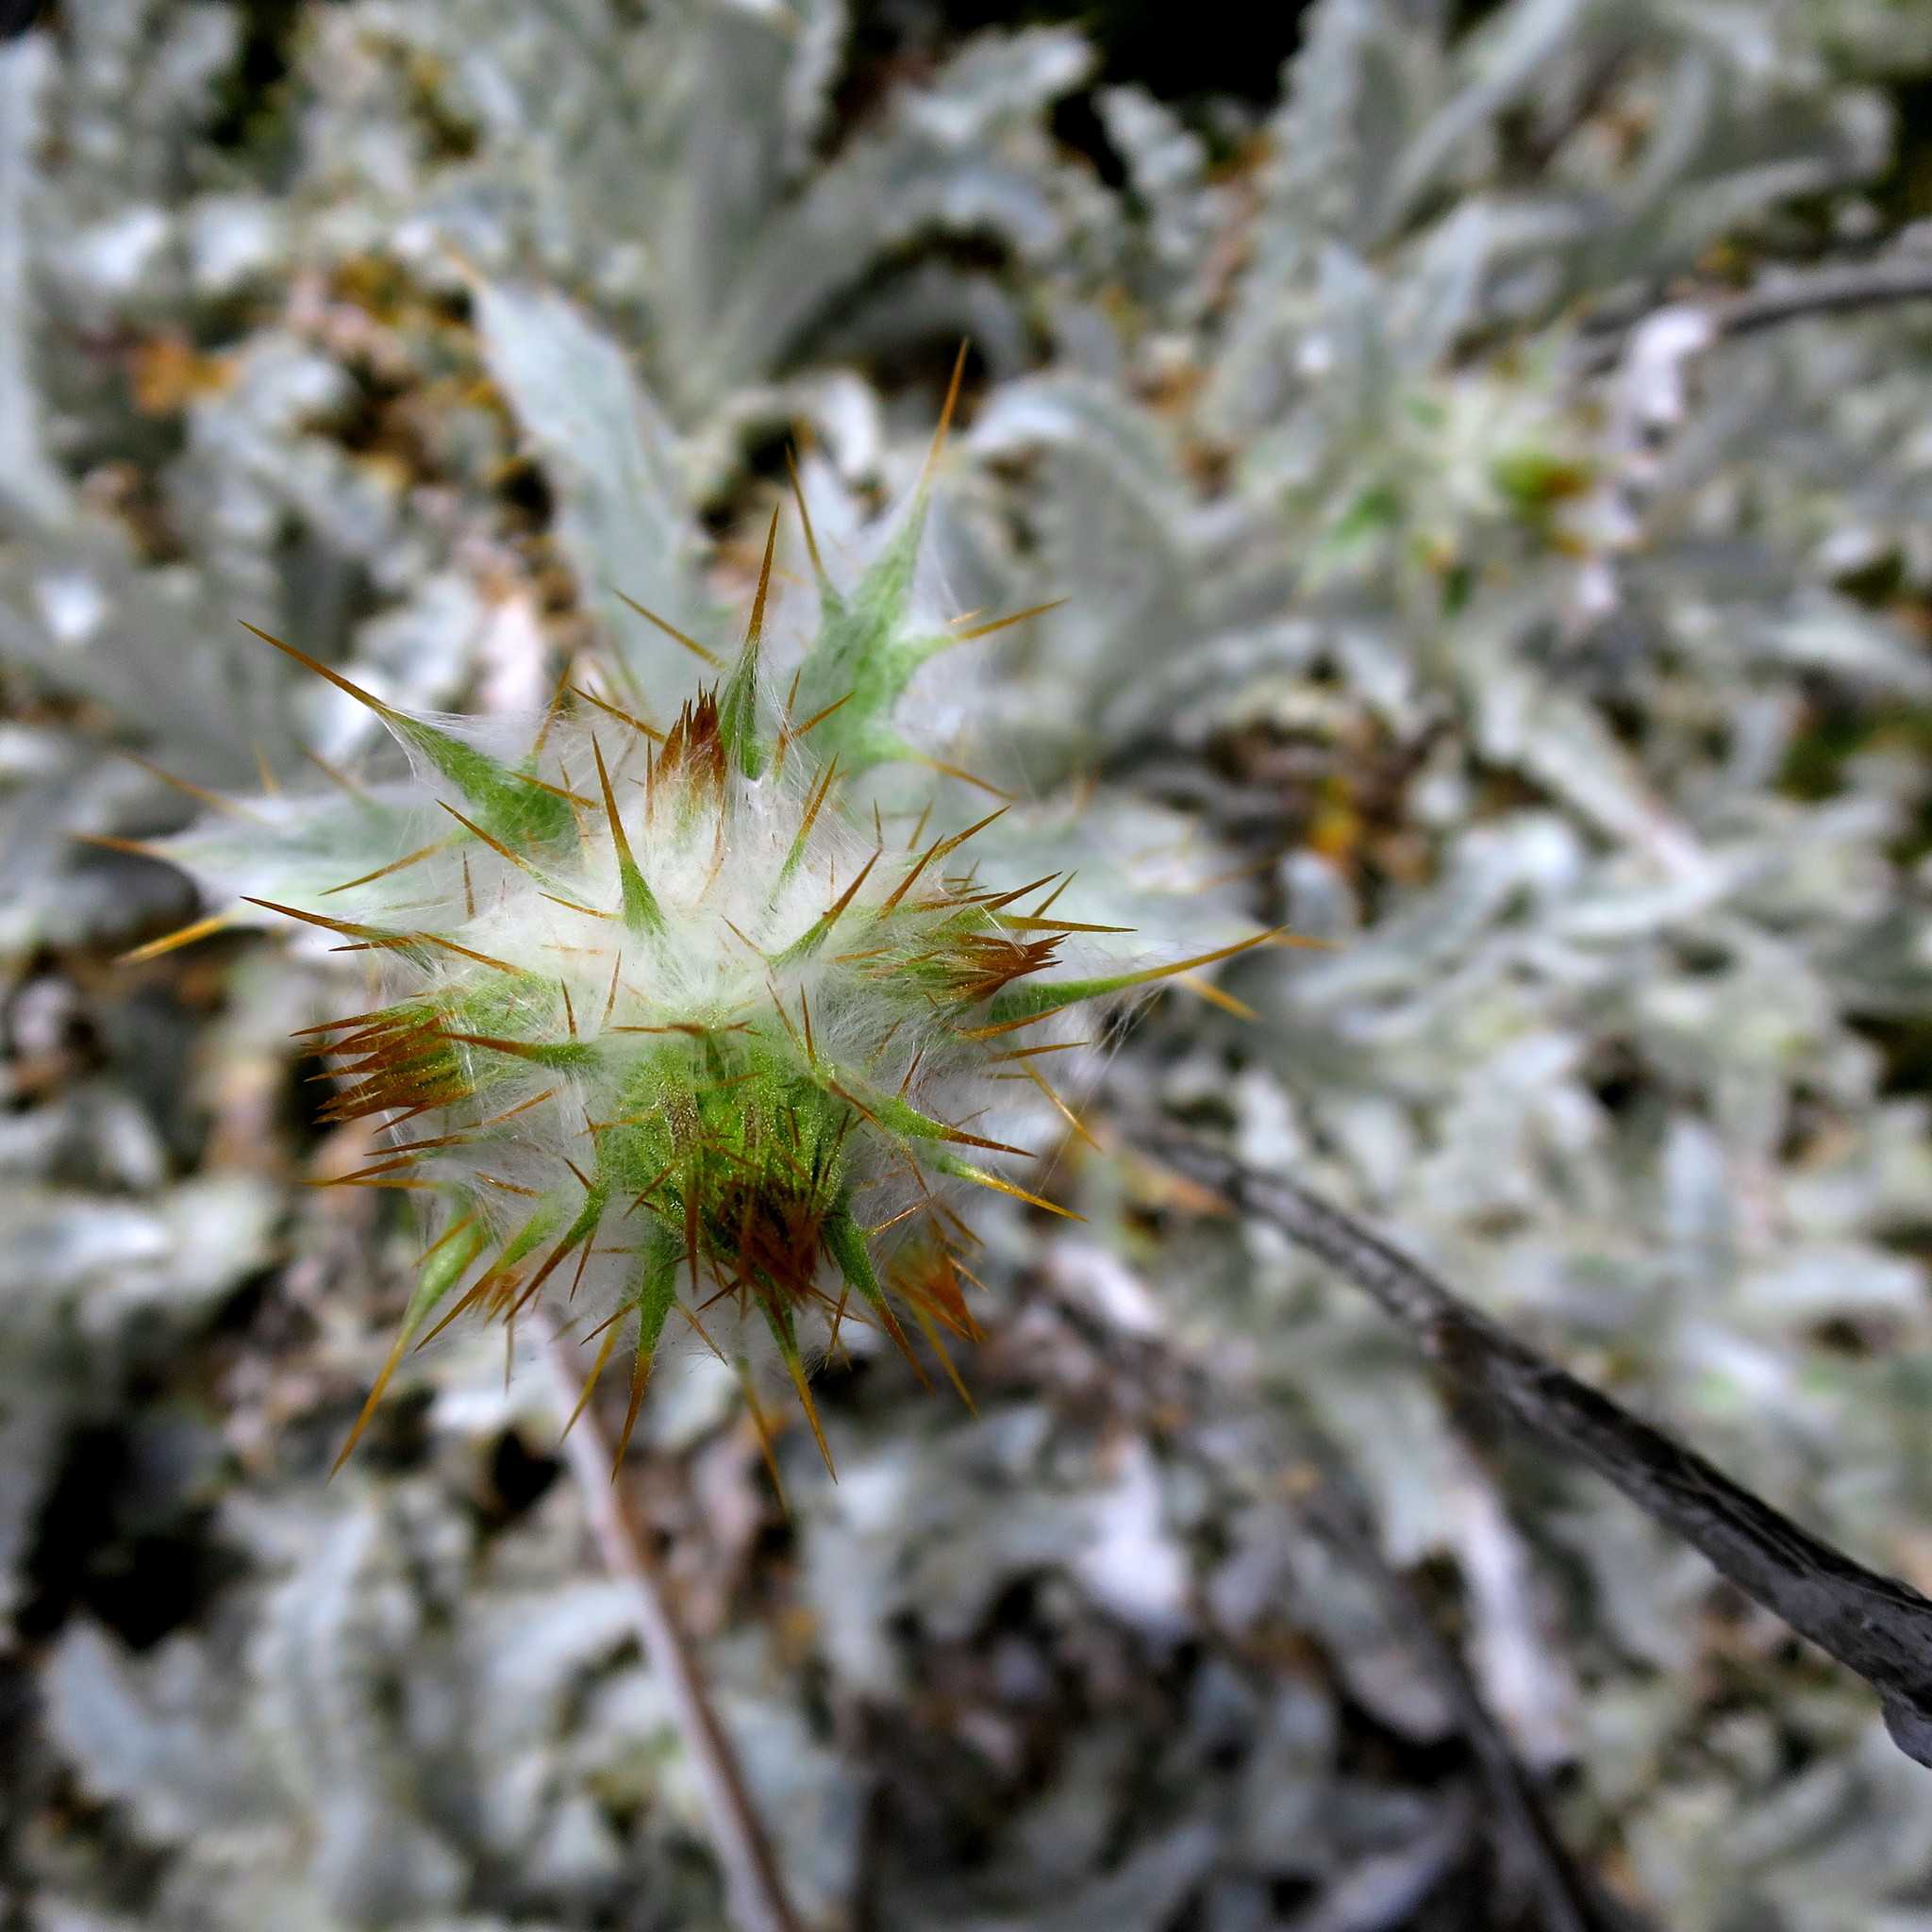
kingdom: Plantae
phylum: Tracheophyta
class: Magnoliopsida
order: Asterales
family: Asteraceae
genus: Berkheya
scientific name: Berkheya francisci
